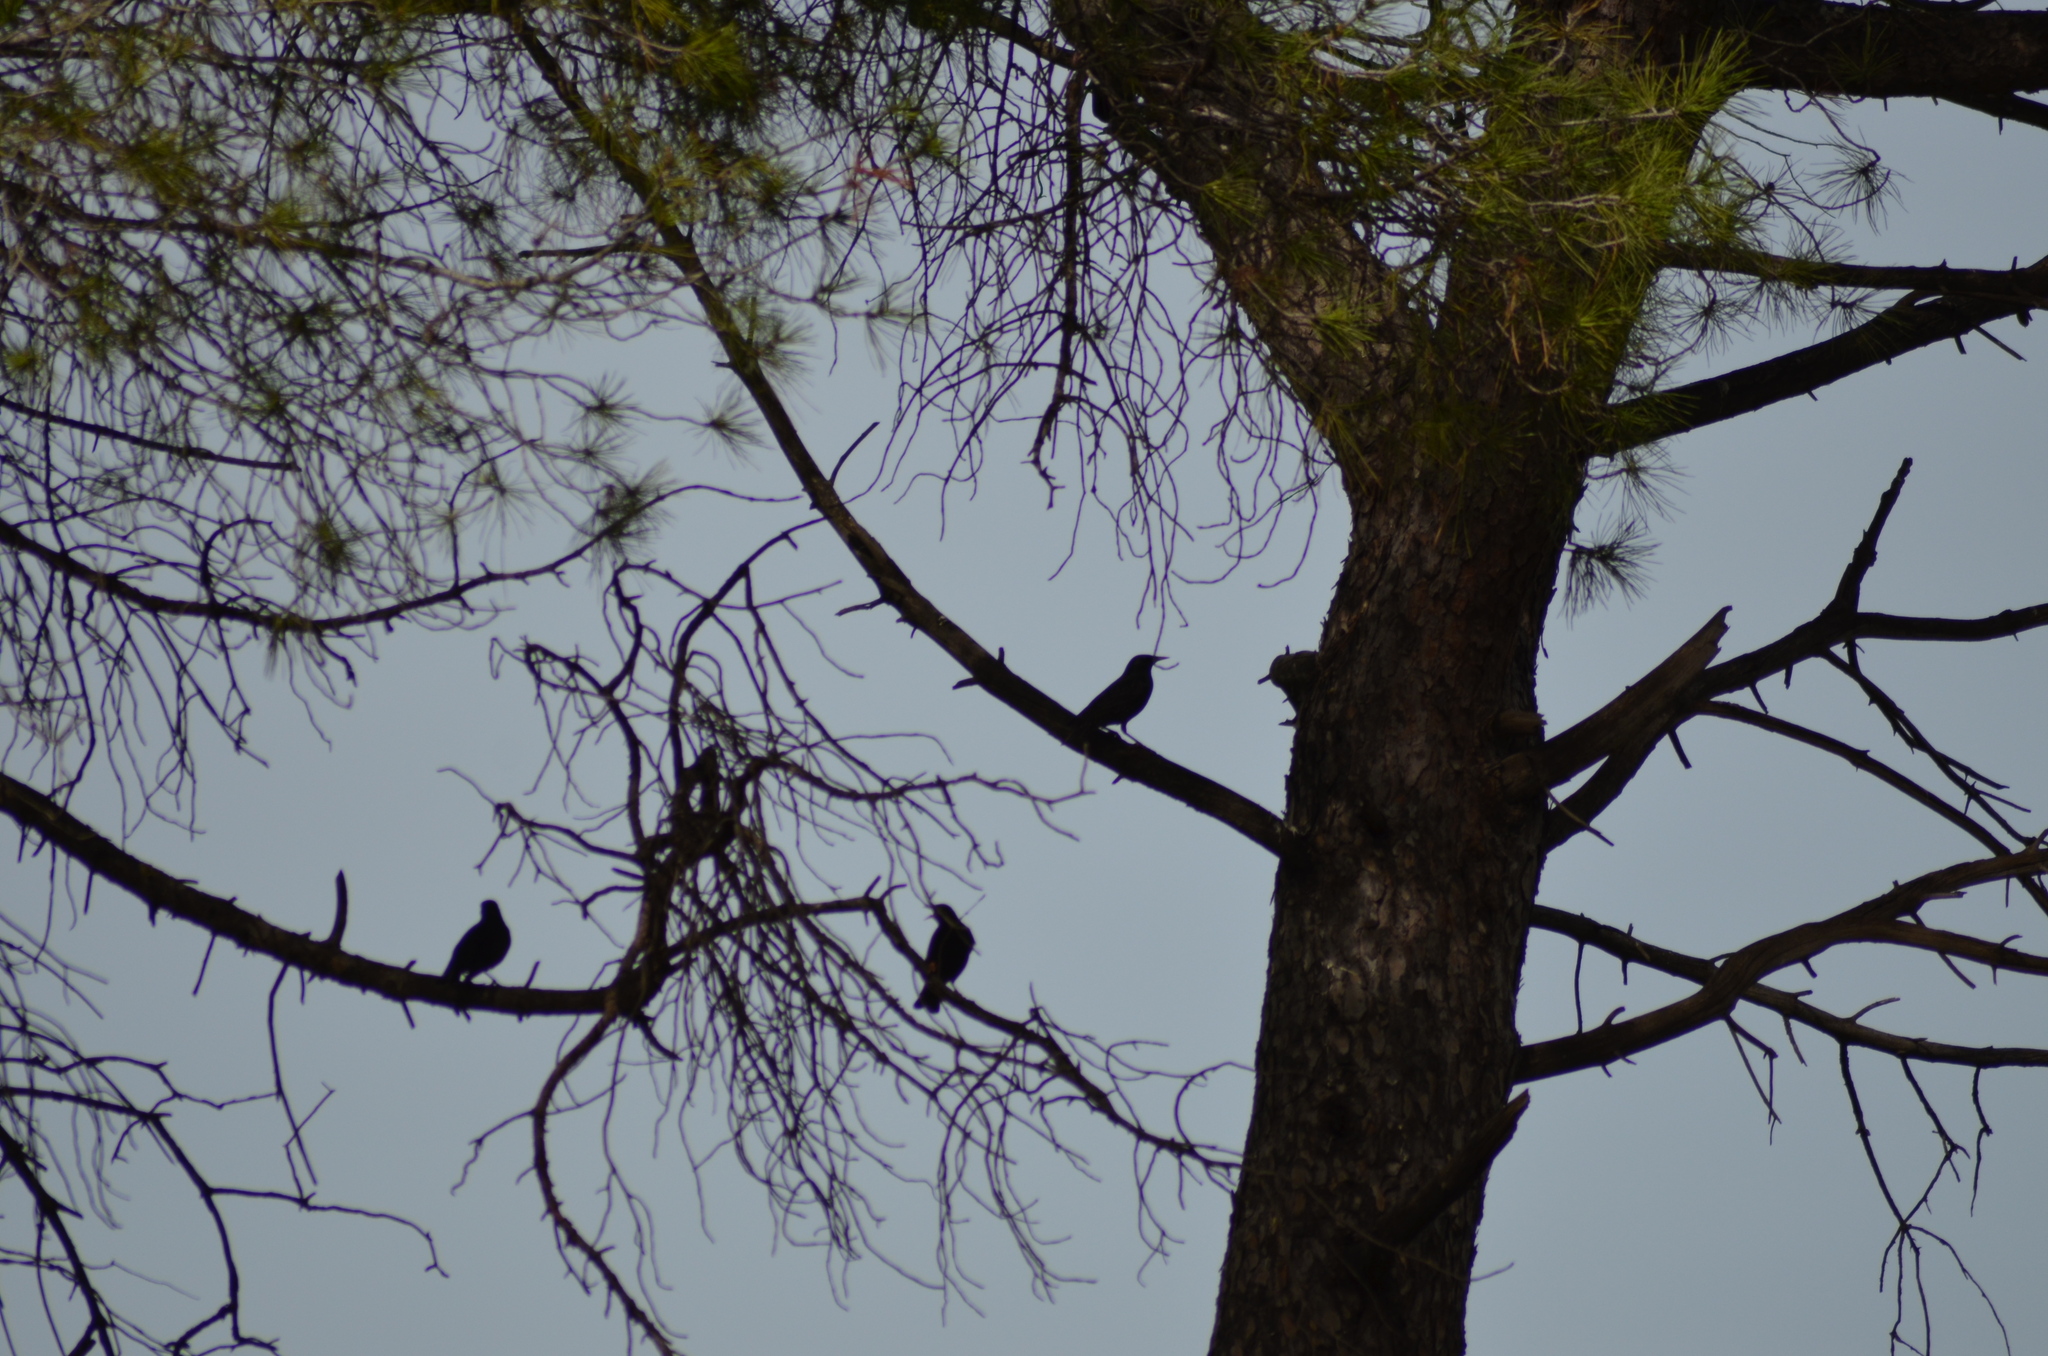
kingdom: Animalia
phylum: Chordata
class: Aves
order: Passeriformes
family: Sturnidae
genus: Sturnus
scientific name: Sturnus vulgaris
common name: Common starling
